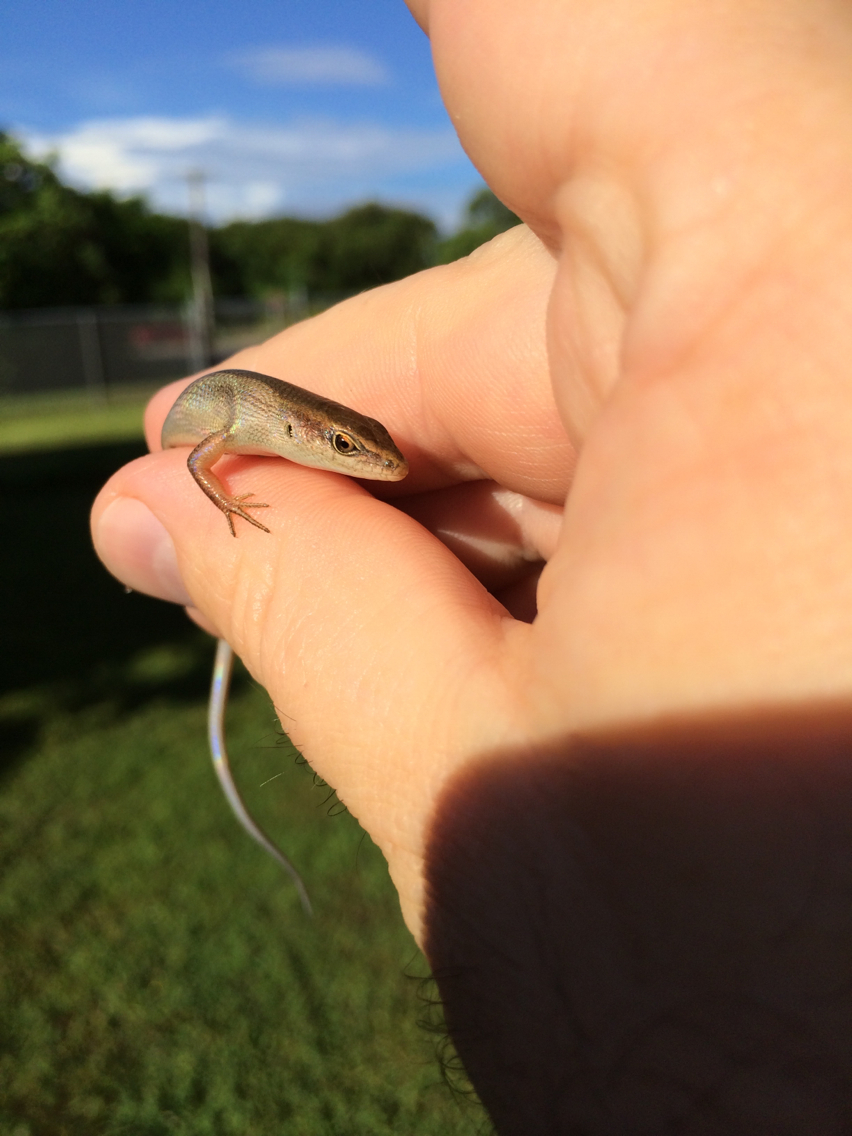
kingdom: Animalia
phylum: Chordata
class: Squamata
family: Scincidae
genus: Carlia
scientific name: Carlia ailanpalai
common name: Curious skink
